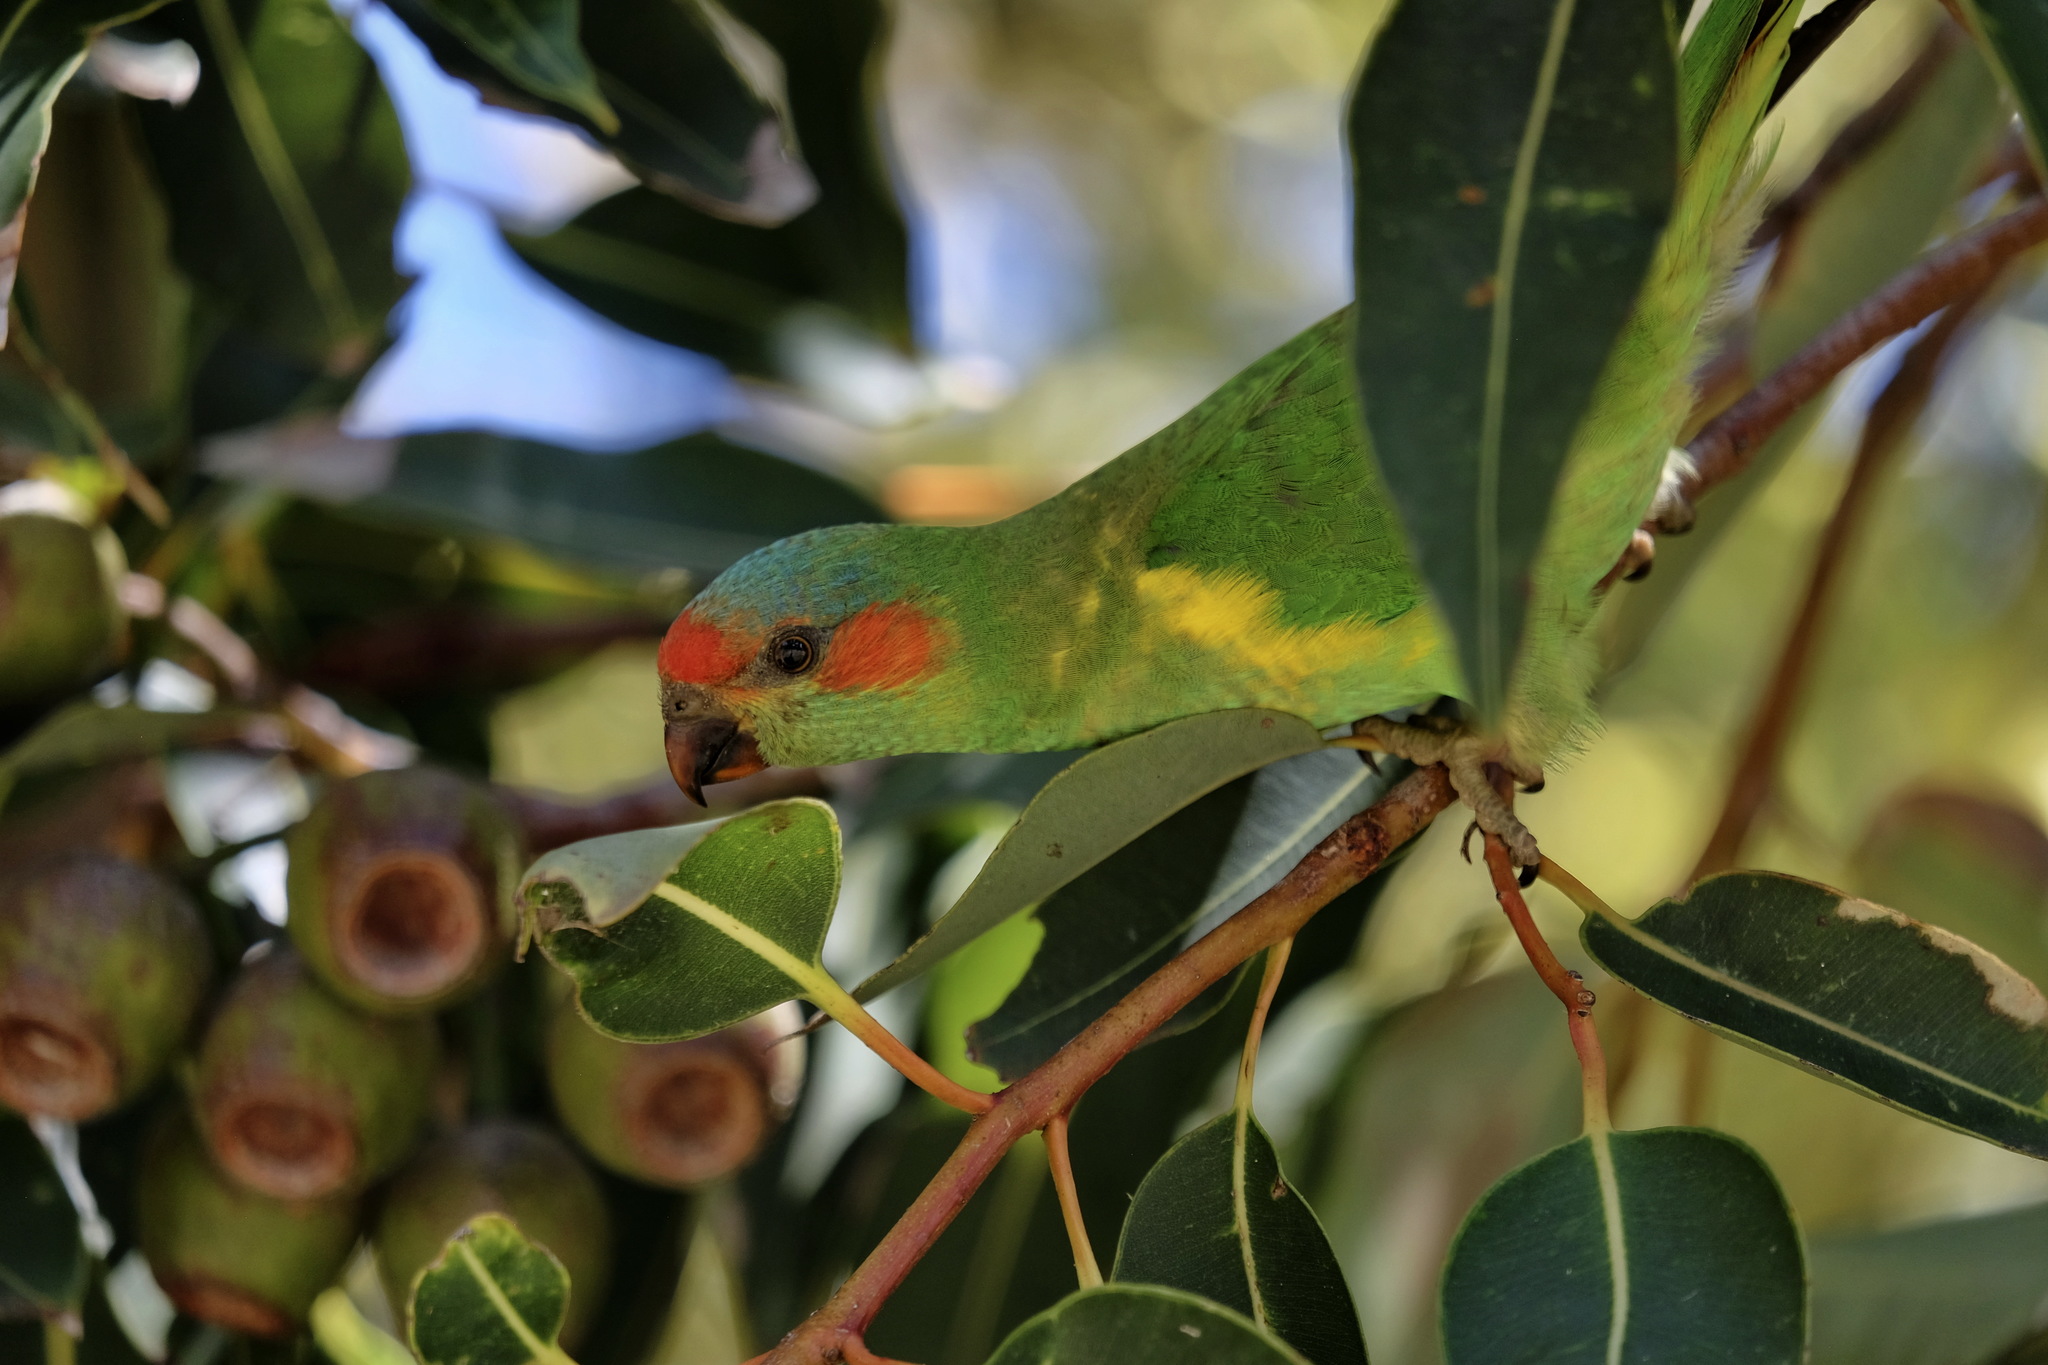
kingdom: Animalia
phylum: Chordata
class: Aves
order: Psittaciformes
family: Psittacidae
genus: Glossopsitta
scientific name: Glossopsitta concinna
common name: Musk lorikeet
